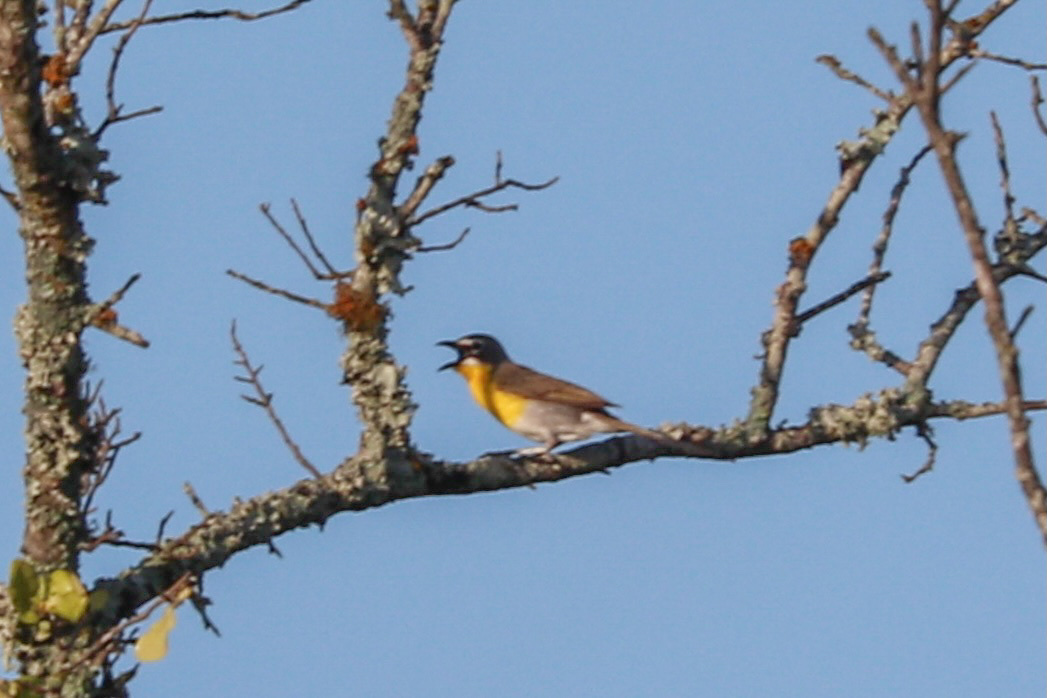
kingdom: Animalia
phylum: Chordata
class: Aves
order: Passeriformes
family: Parulidae
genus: Icteria
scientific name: Icteria virens
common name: Yellow-breasted chat
